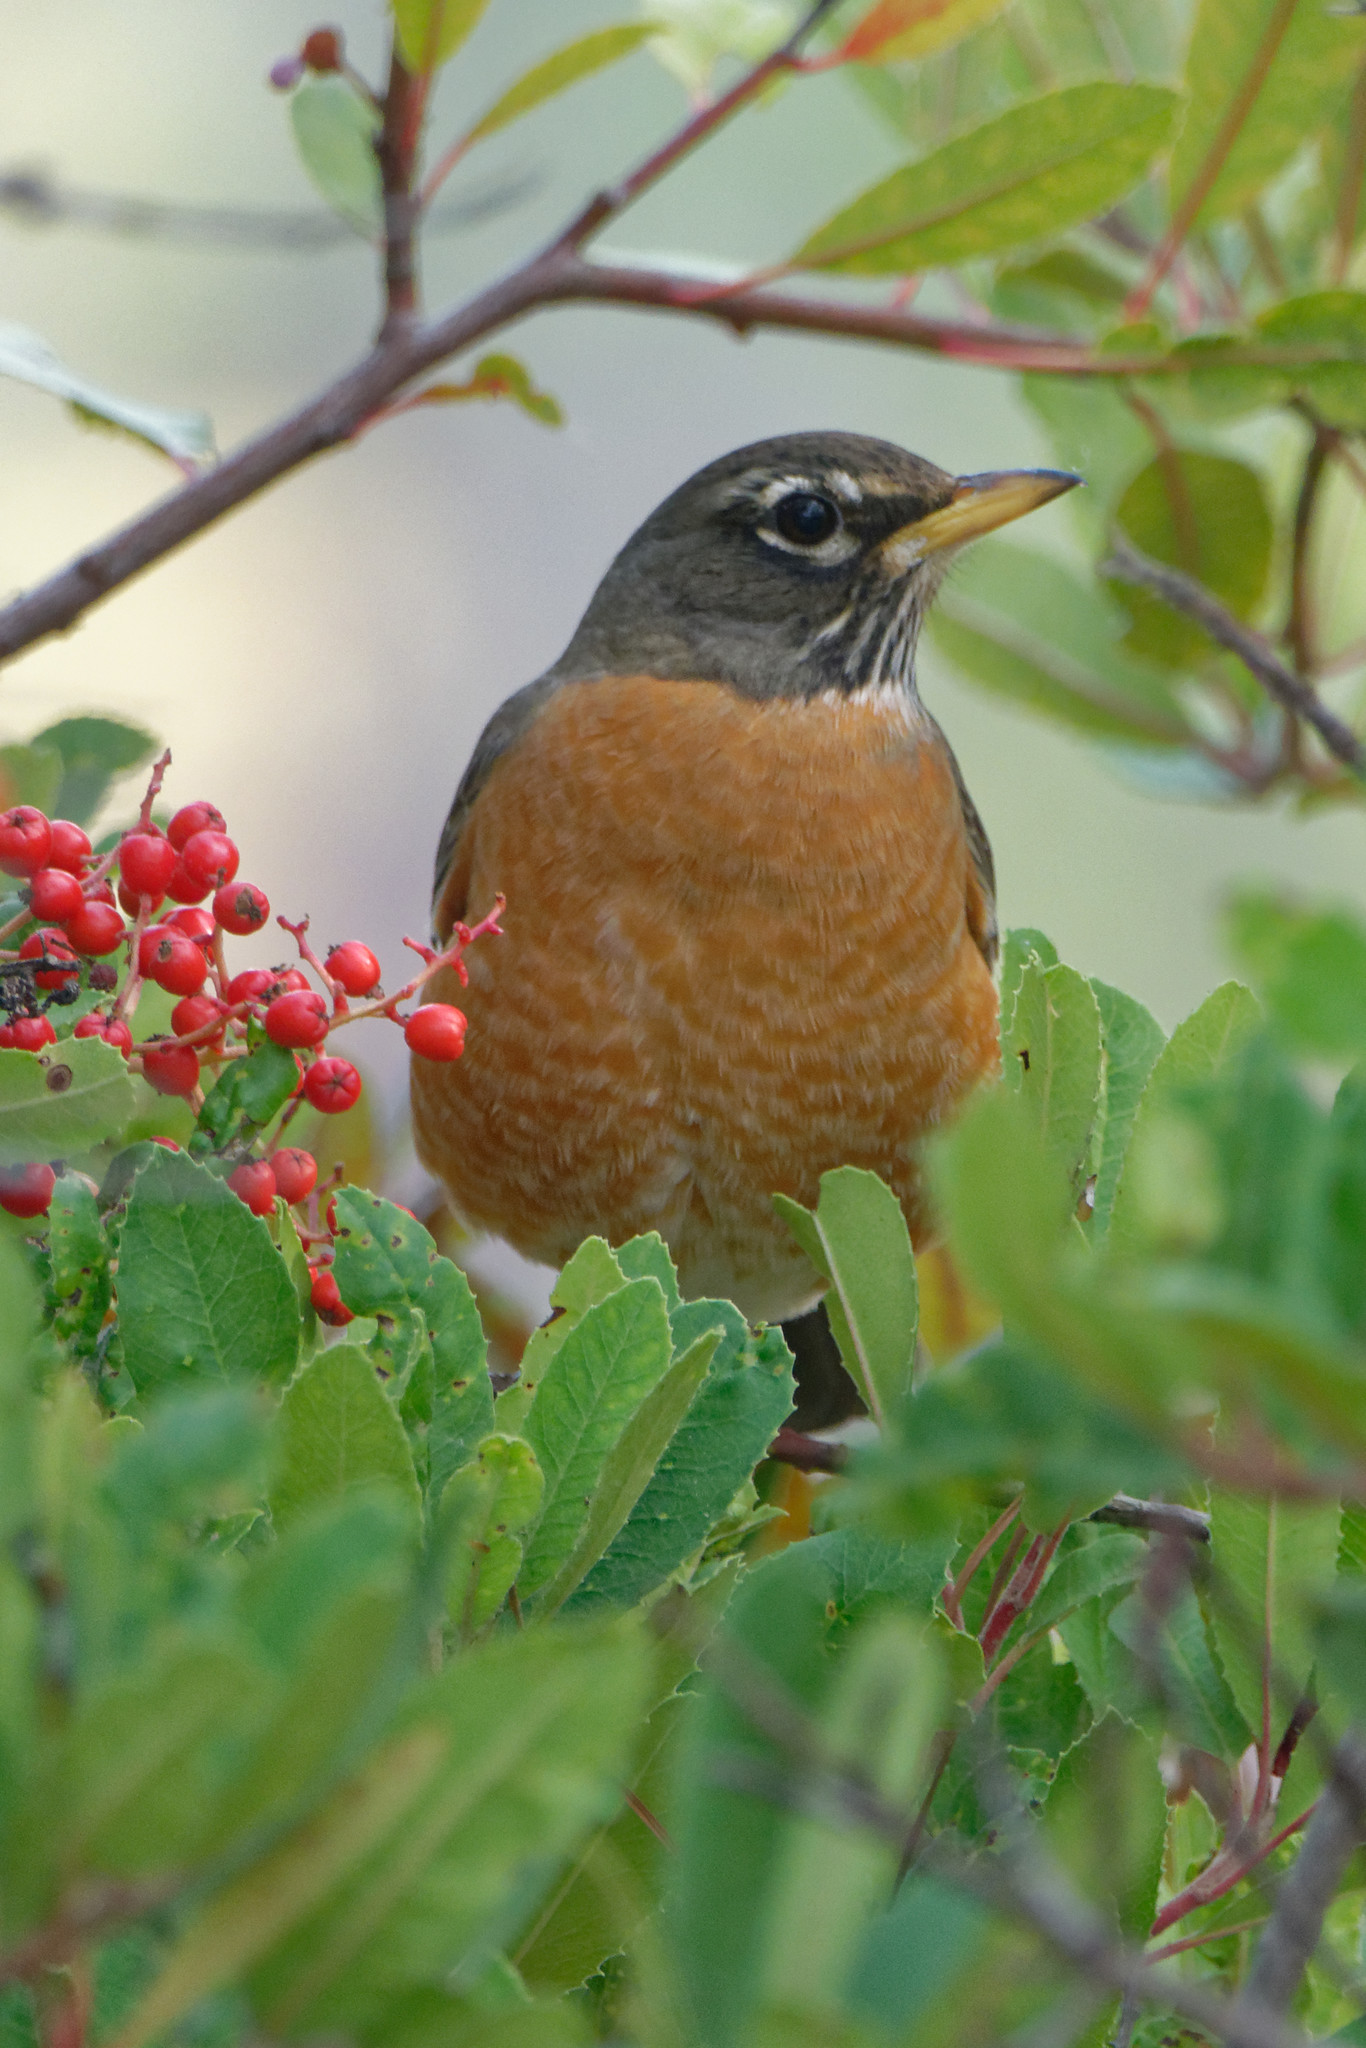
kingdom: Animalia
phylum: Chordata
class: Aves
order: Passeriformes
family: Turdidae
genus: Turdus
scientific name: Turdus migratorius
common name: American robin
